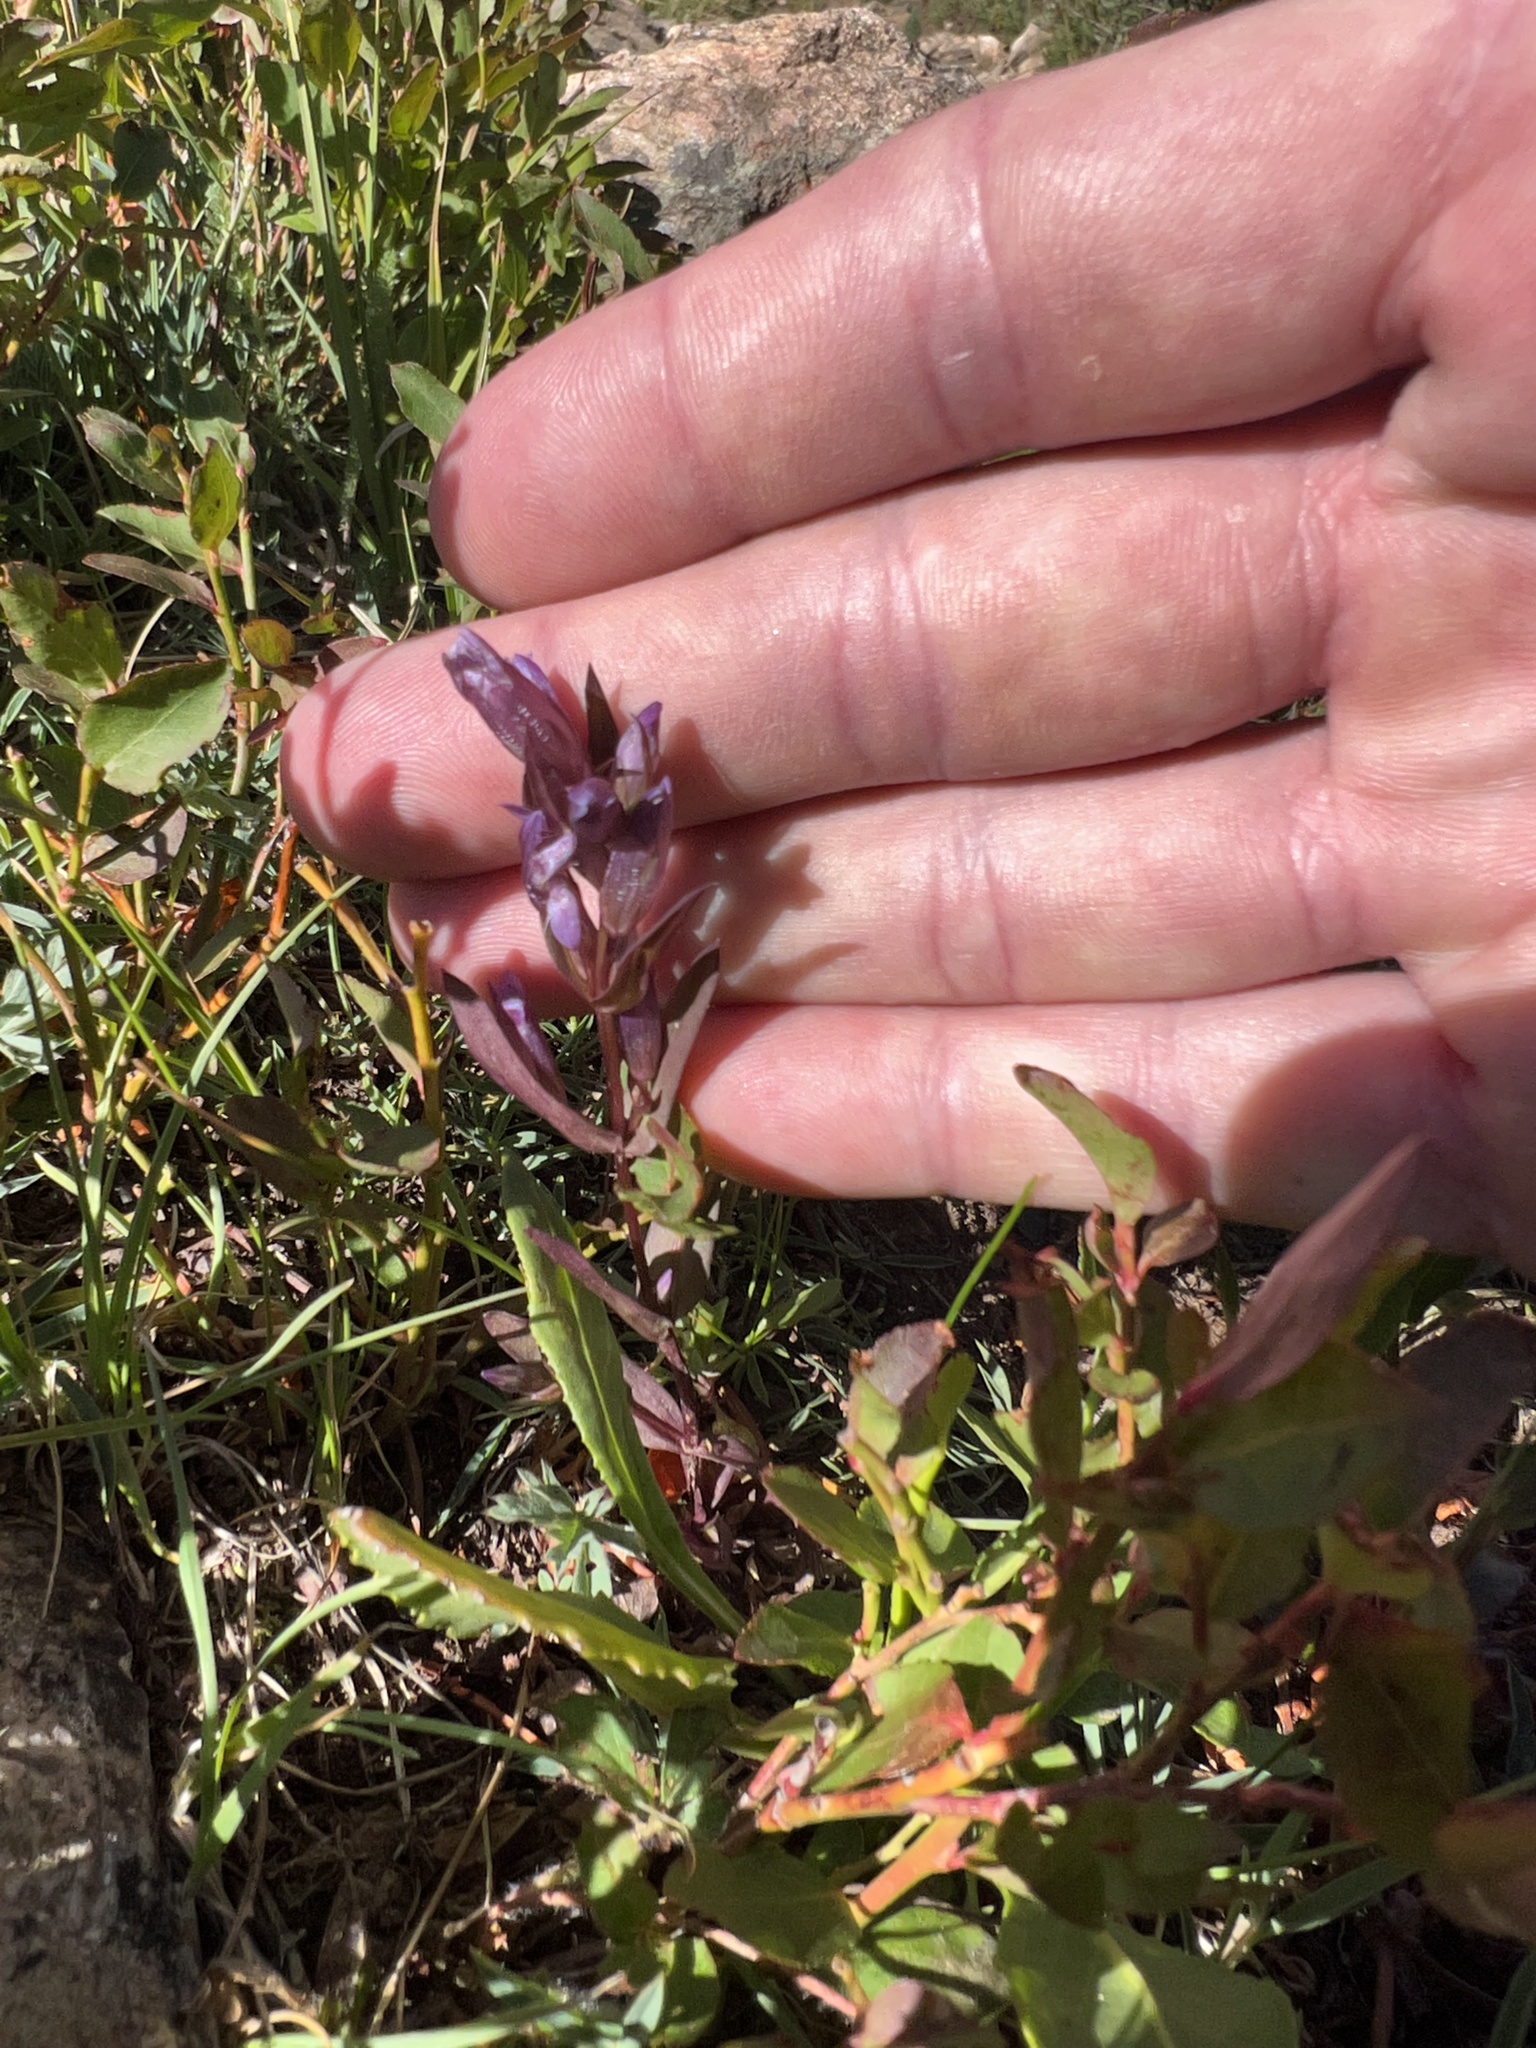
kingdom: Plantae
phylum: Tracheophyta
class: Magnoliopsida
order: Gentianales
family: Gentianaceae
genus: Gentianella
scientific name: Gentianella amarella
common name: Autumn gentian
